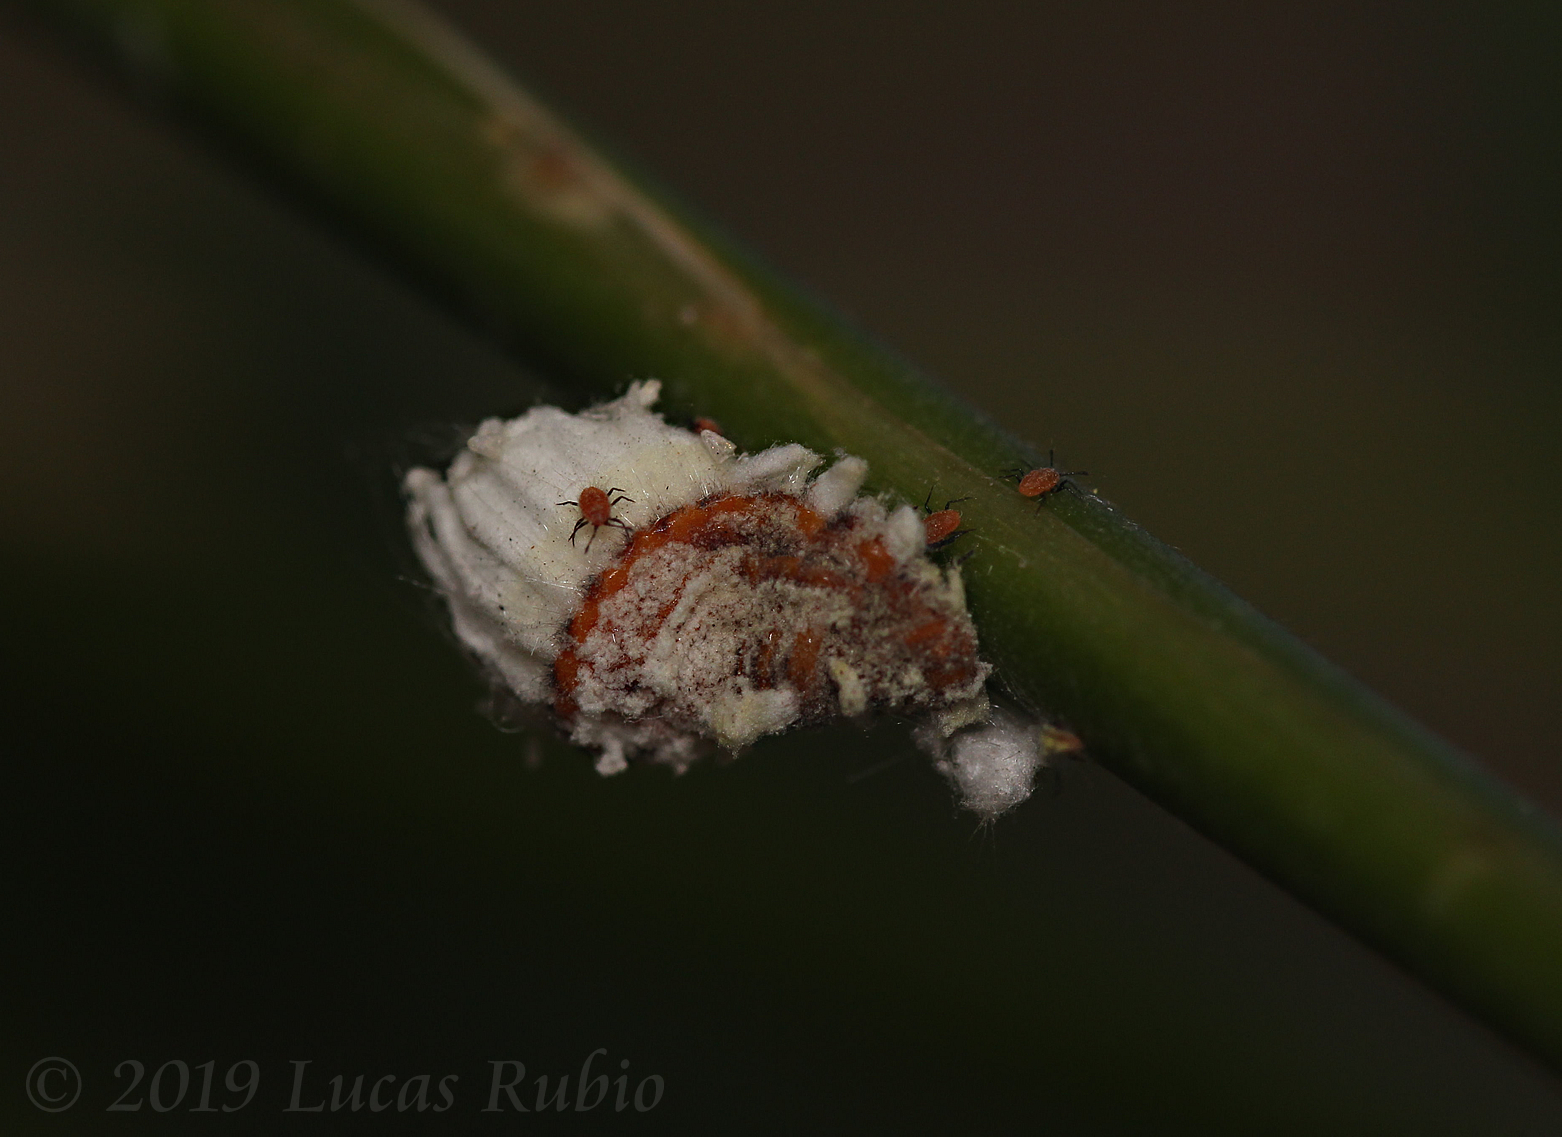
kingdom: Animalia
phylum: Arthropoda
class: Insecta
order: Hemiptera
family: Margarodidae
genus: Icerya
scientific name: Icerya purchasi
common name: Cottony cushion scale
